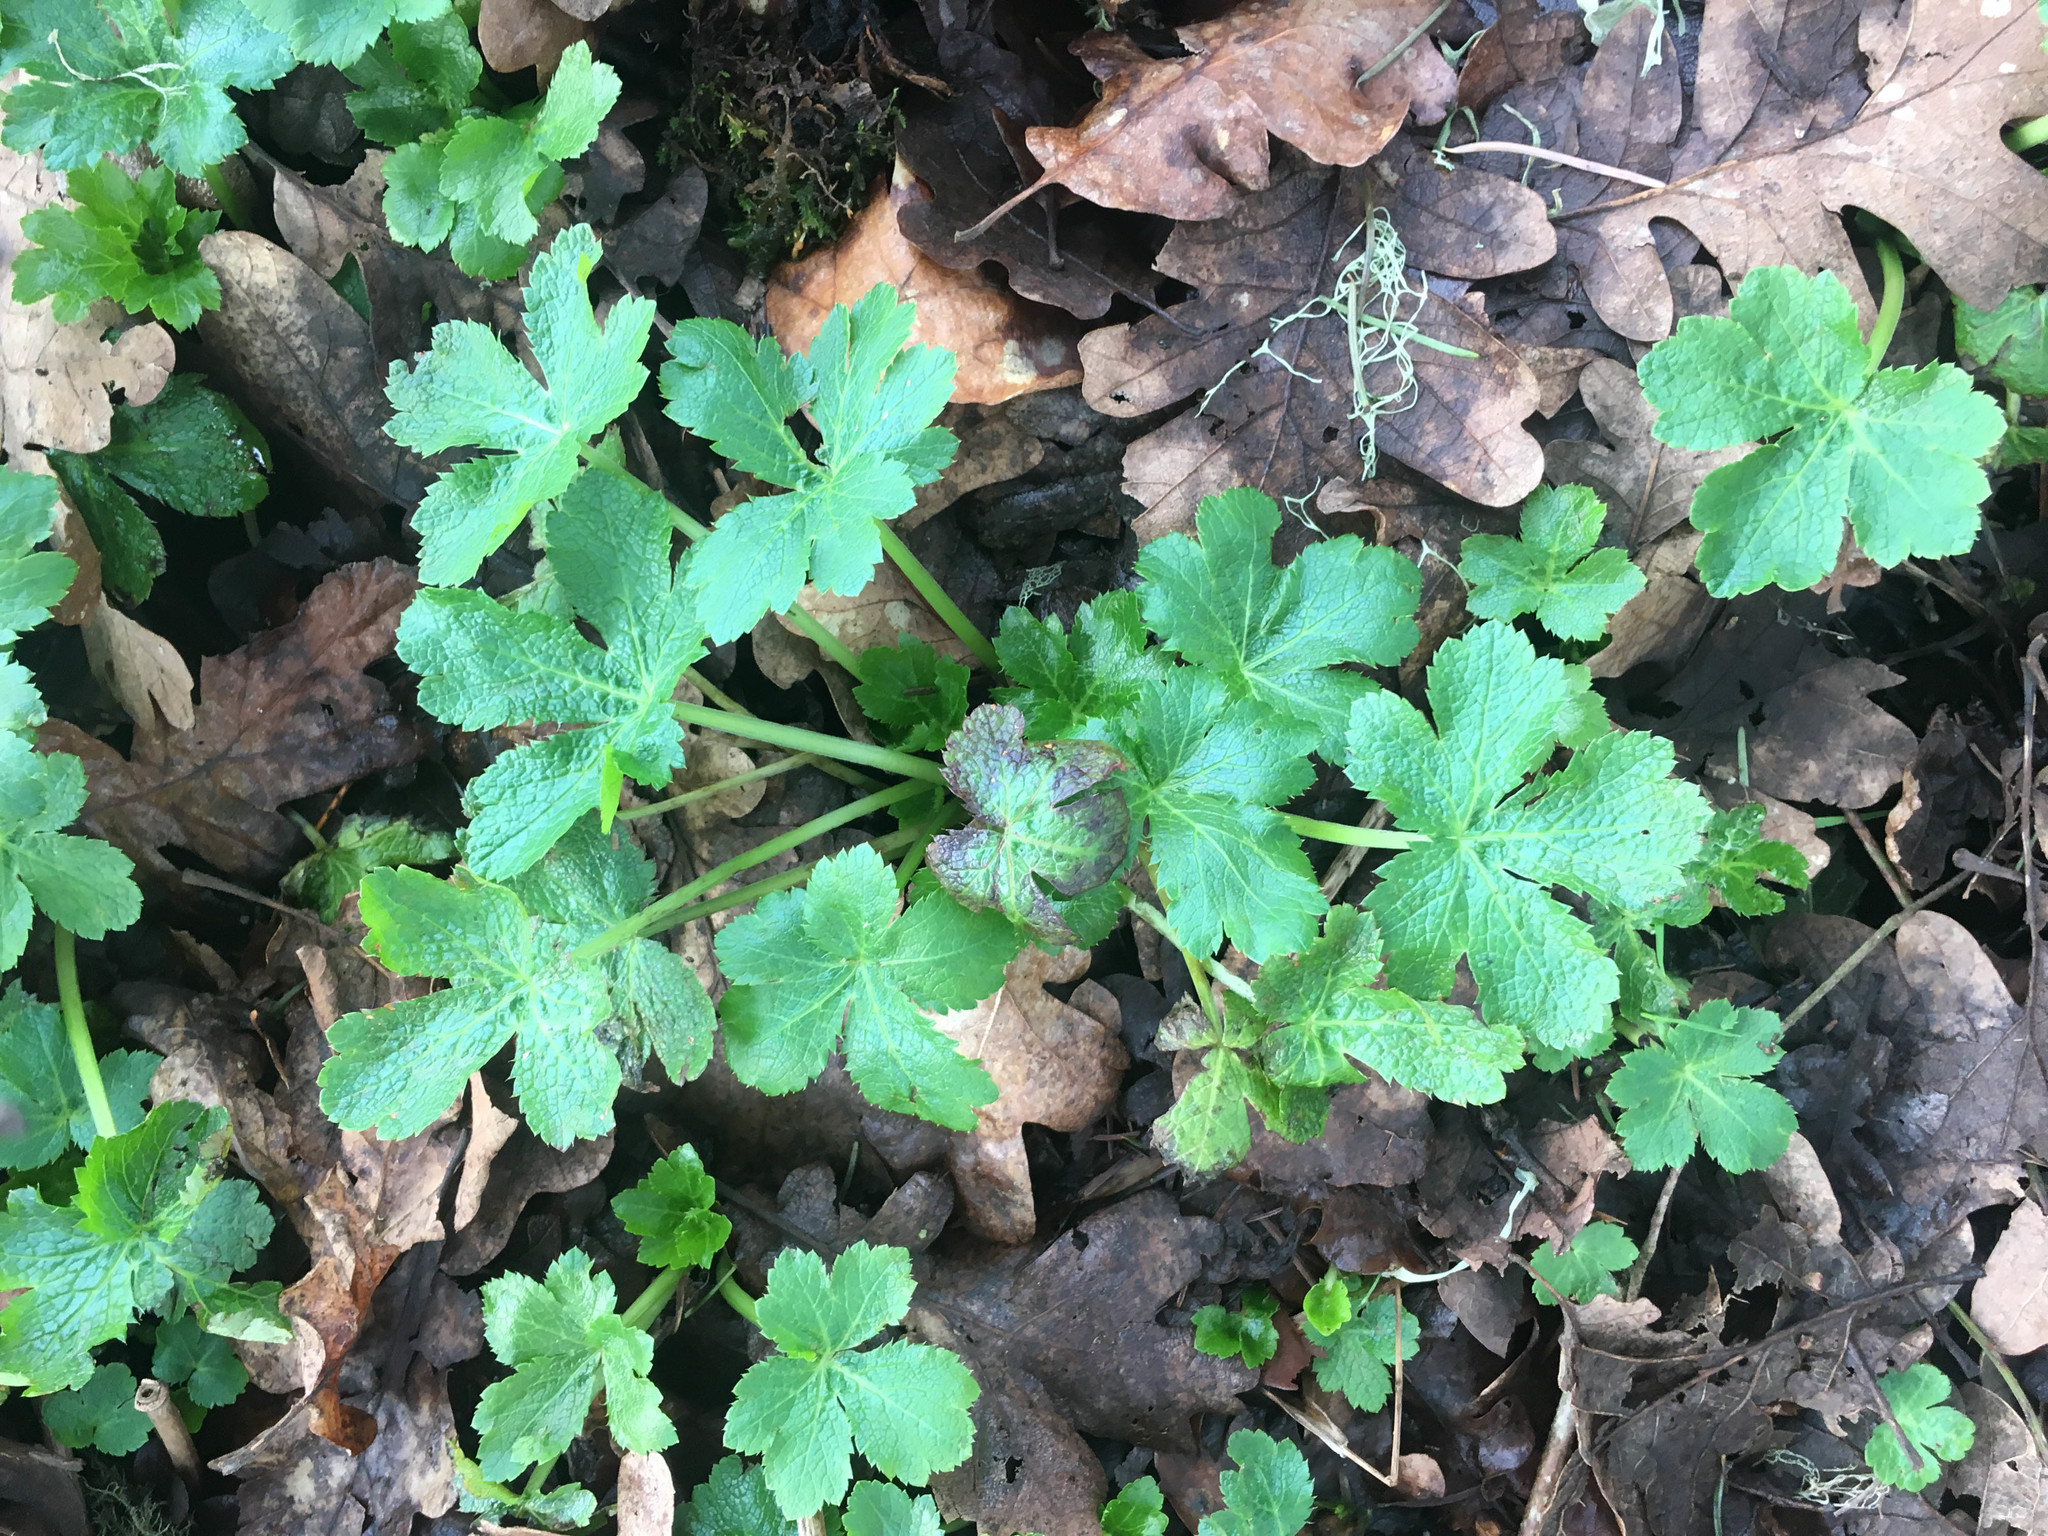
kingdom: Plantae
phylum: Tracheophyta
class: Magnoliopsida
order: Apiales
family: Apiaceae
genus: Sanicula
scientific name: Sanicula crassicaulis
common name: Western snakeroot
